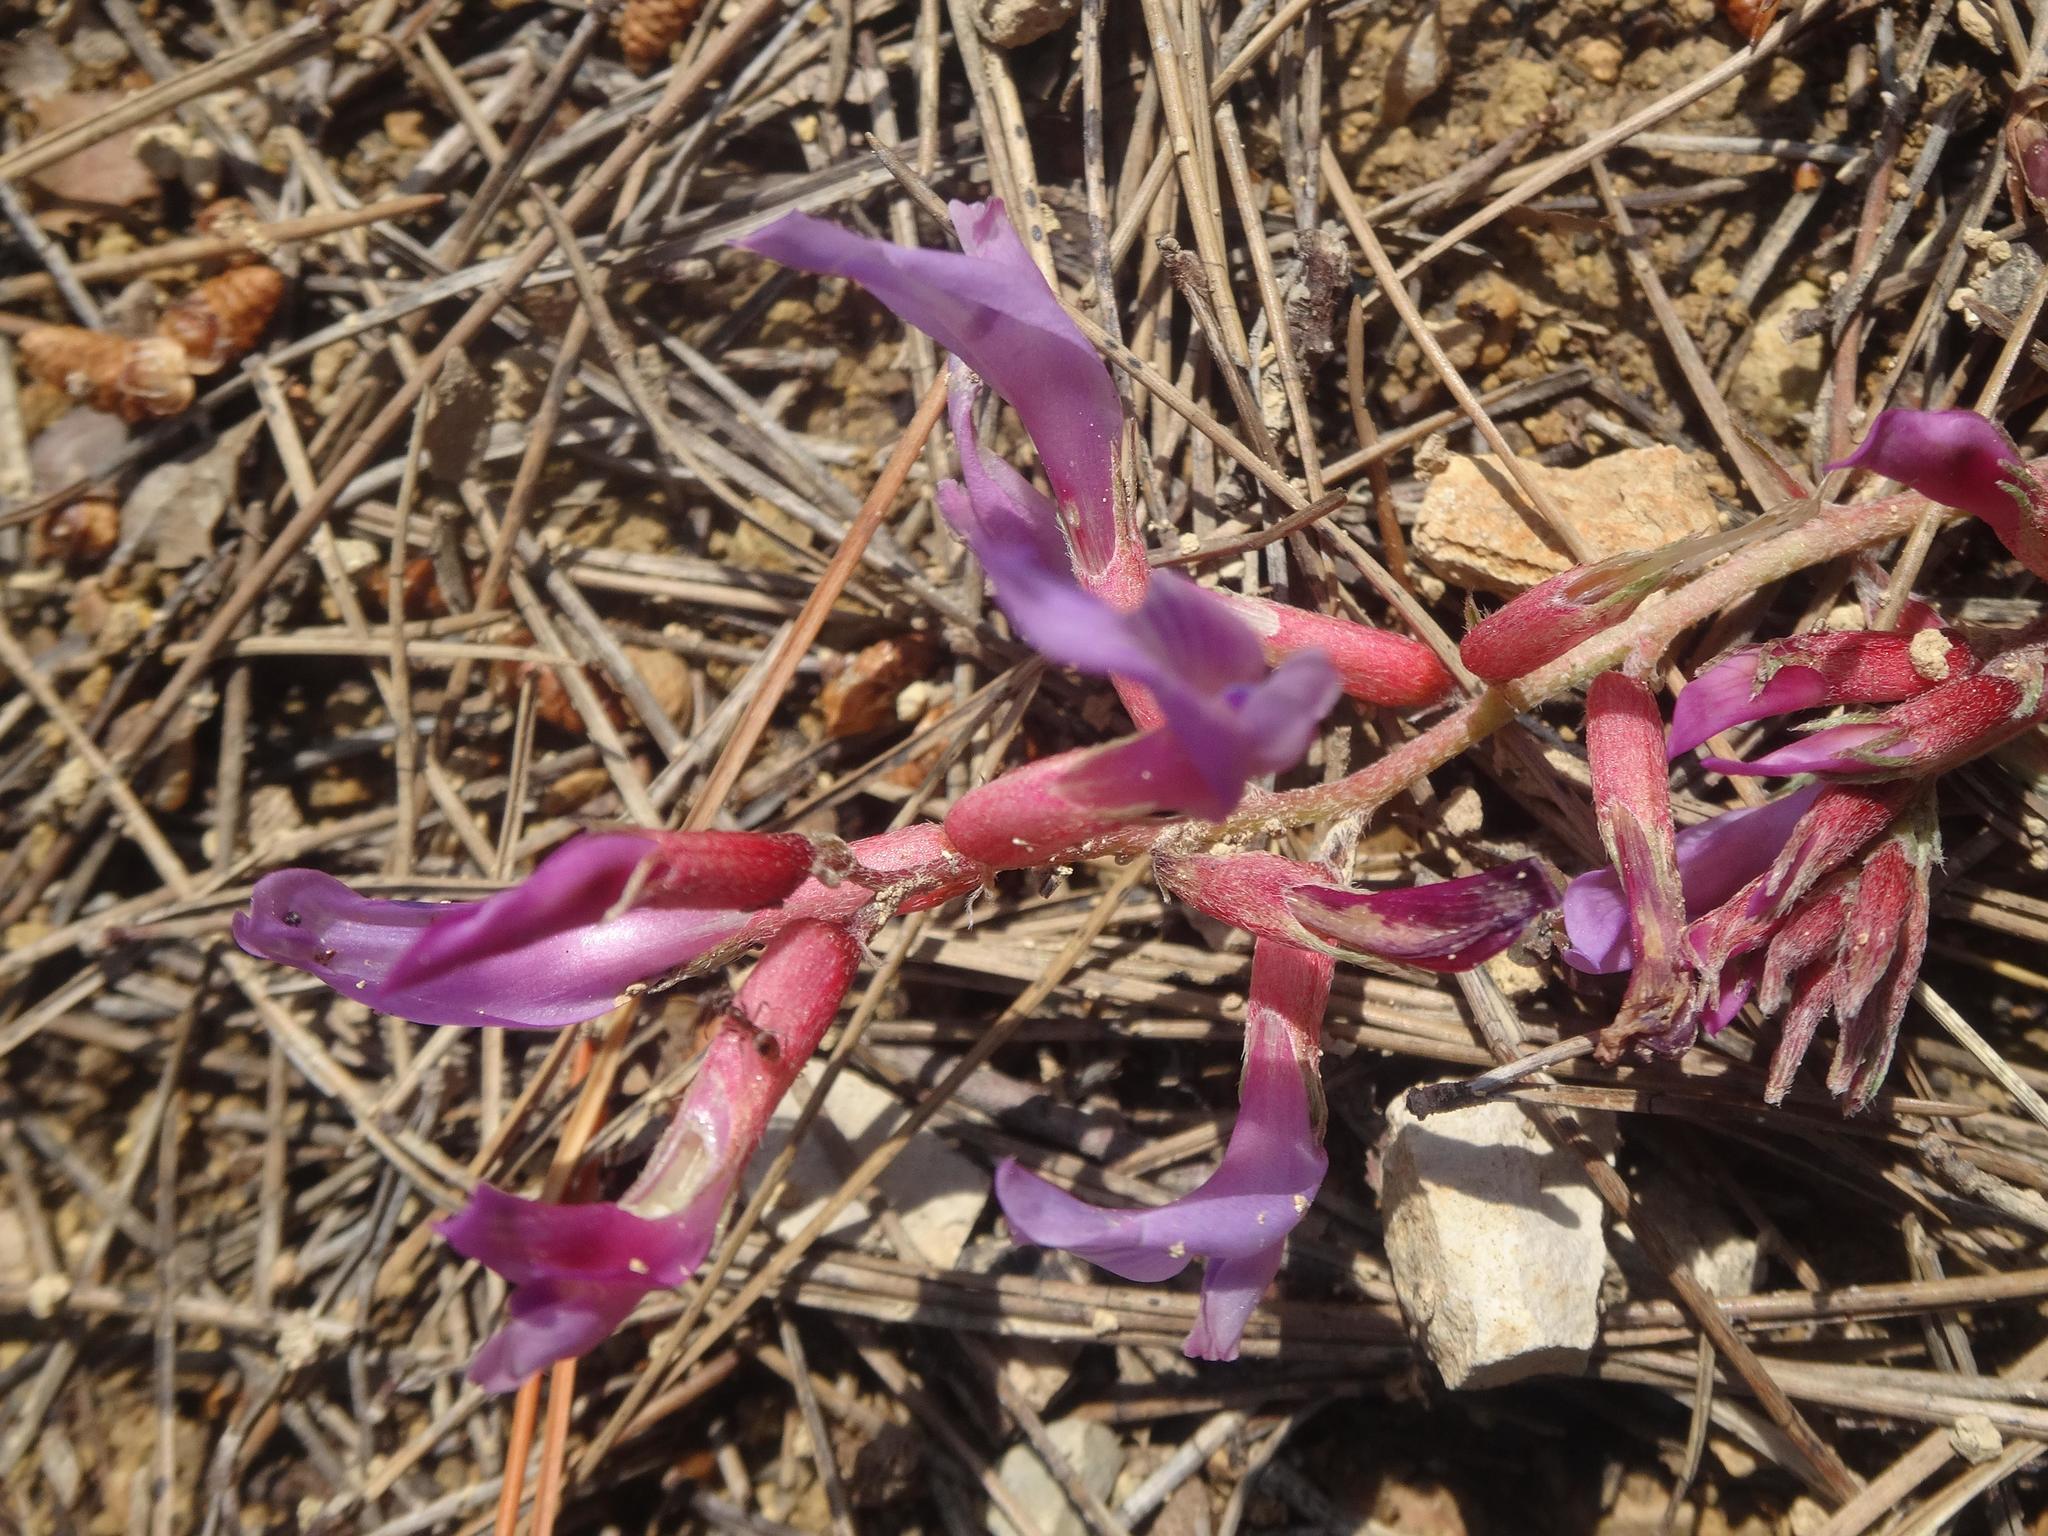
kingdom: Plantae
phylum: Tracheophyta
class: Magnoliopsida
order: Fabales
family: Fabaceae
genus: Astragalus
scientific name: Astragalus monspessulanus
